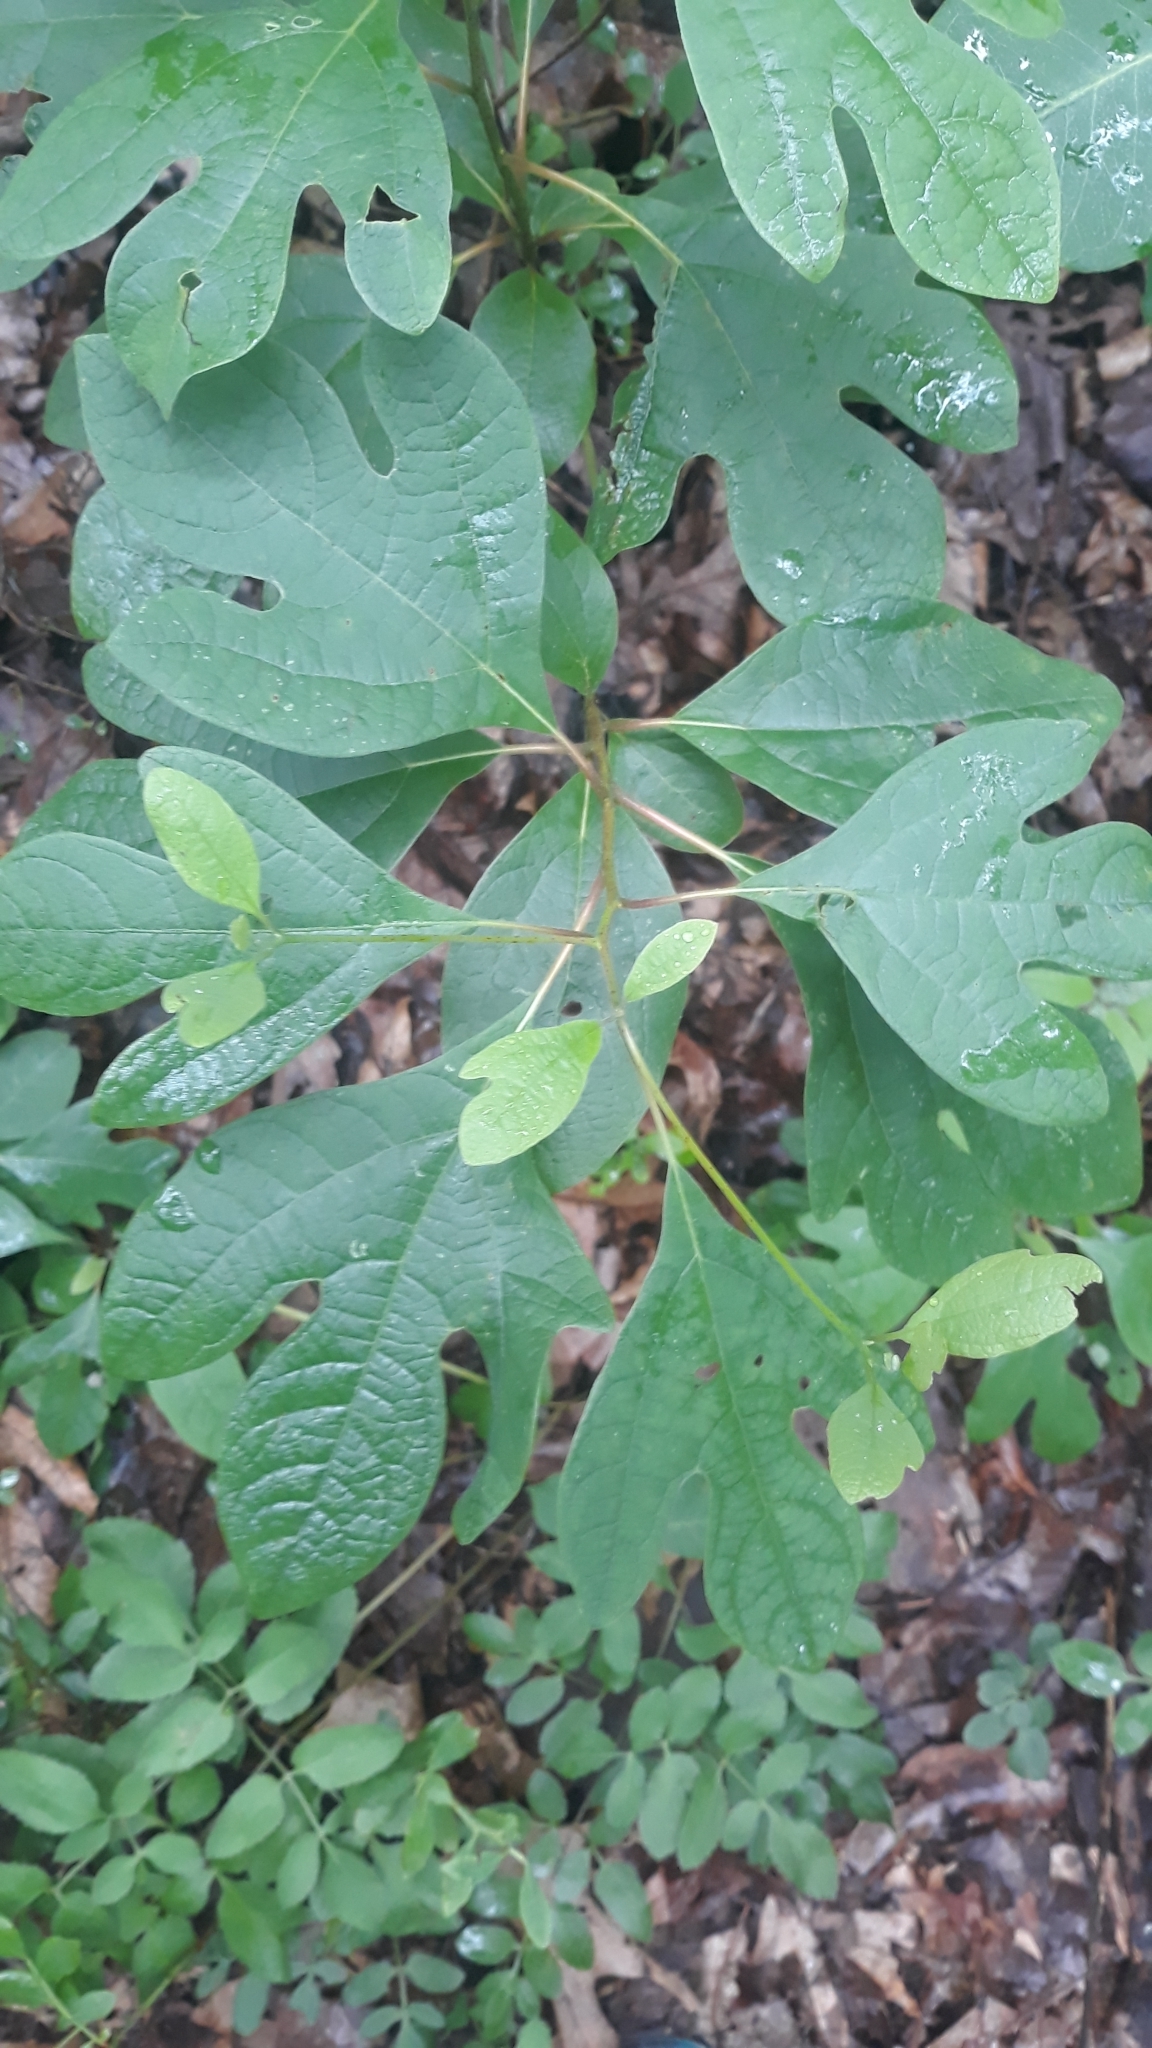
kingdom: Plantae
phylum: Tracheophyta
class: Magnoliopsida
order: Laurales
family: Lauraceae
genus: Sassafras
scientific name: Sassafras albidum
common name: Sassafras
